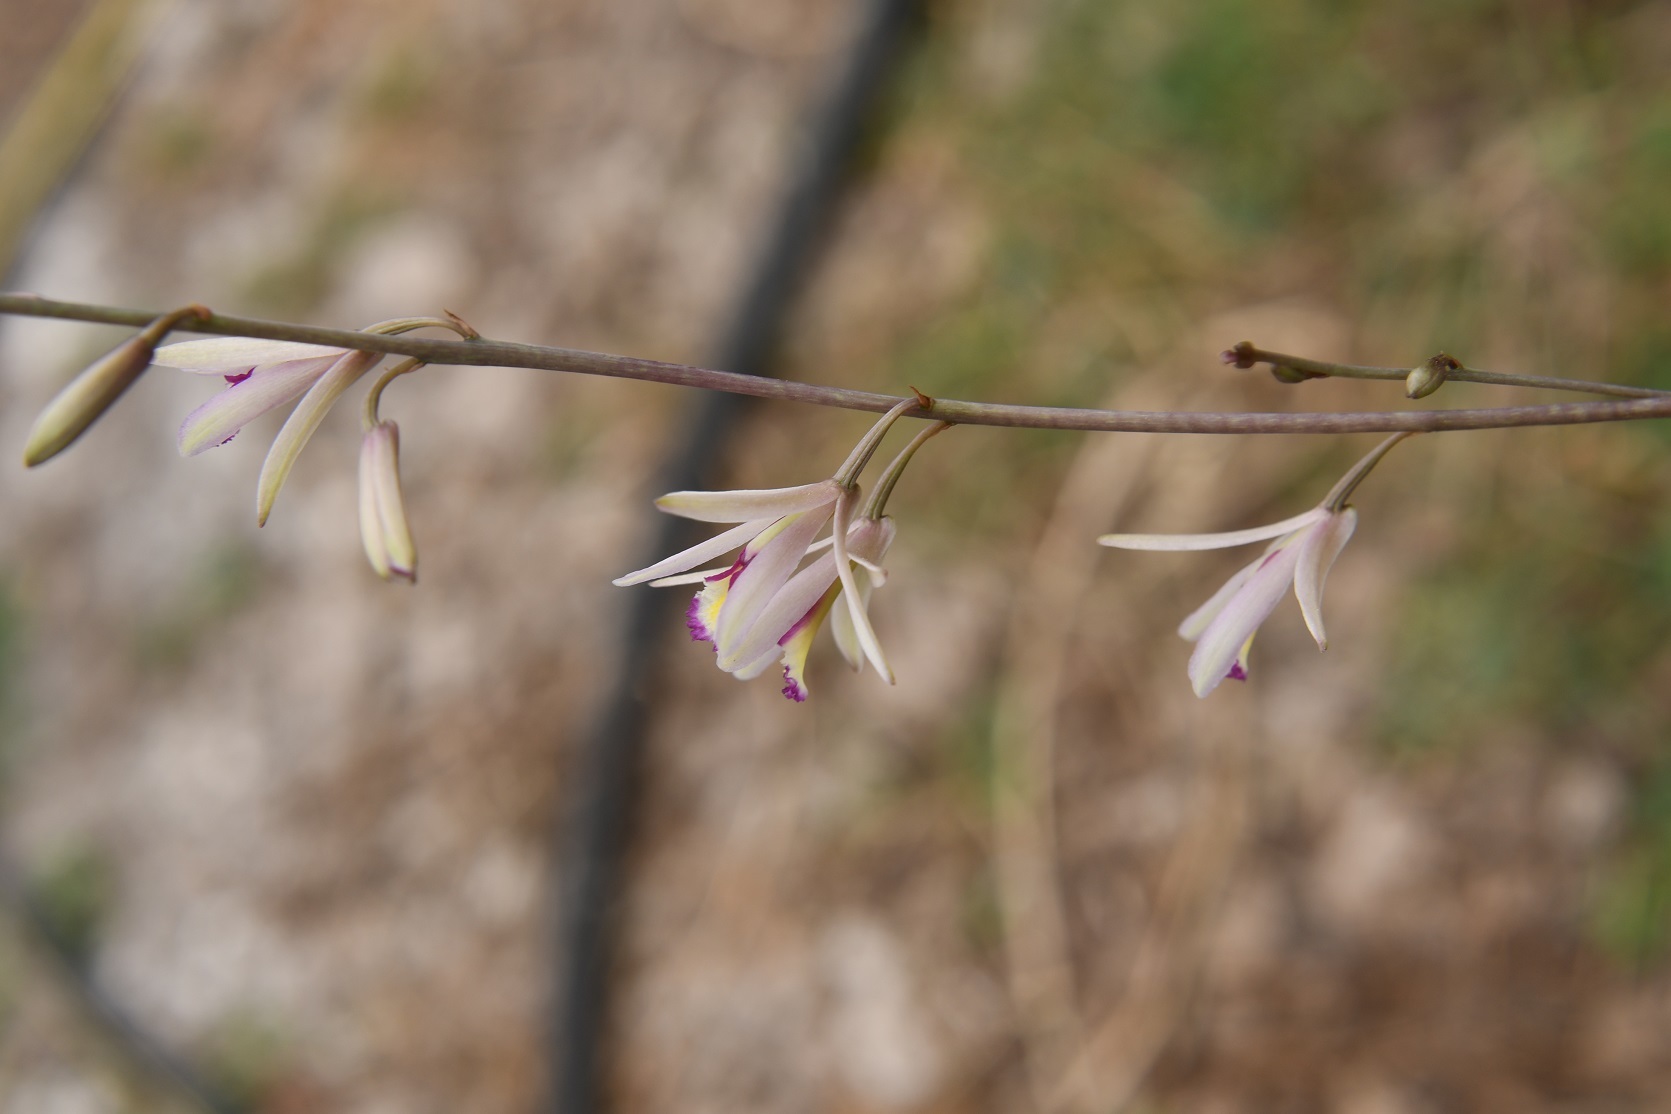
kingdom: Plantae
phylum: Tracheophyta
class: Liliopsida
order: Asparagales
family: Orchidaceae
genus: Bletia
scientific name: Bletia parkinsonii
